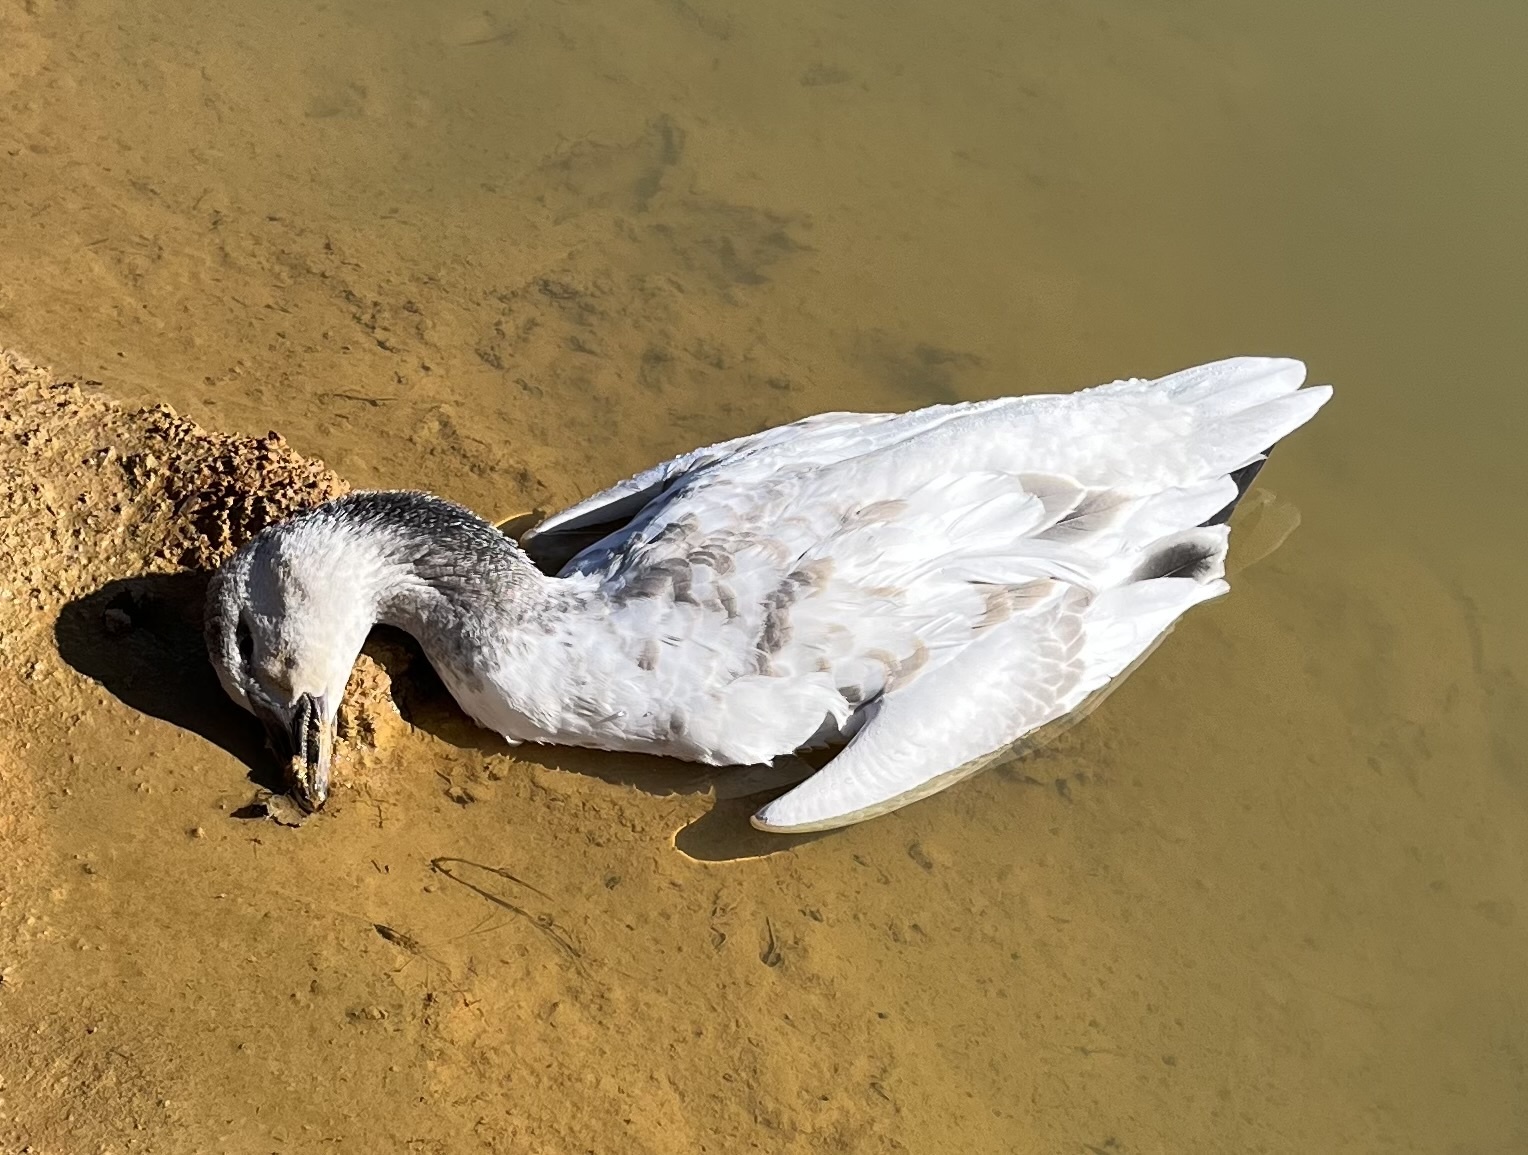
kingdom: Animalia
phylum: Chordata
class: Aves
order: Anseriformes
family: Anatidae
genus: Anser
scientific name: Anser caerulescens
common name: Snow goose
